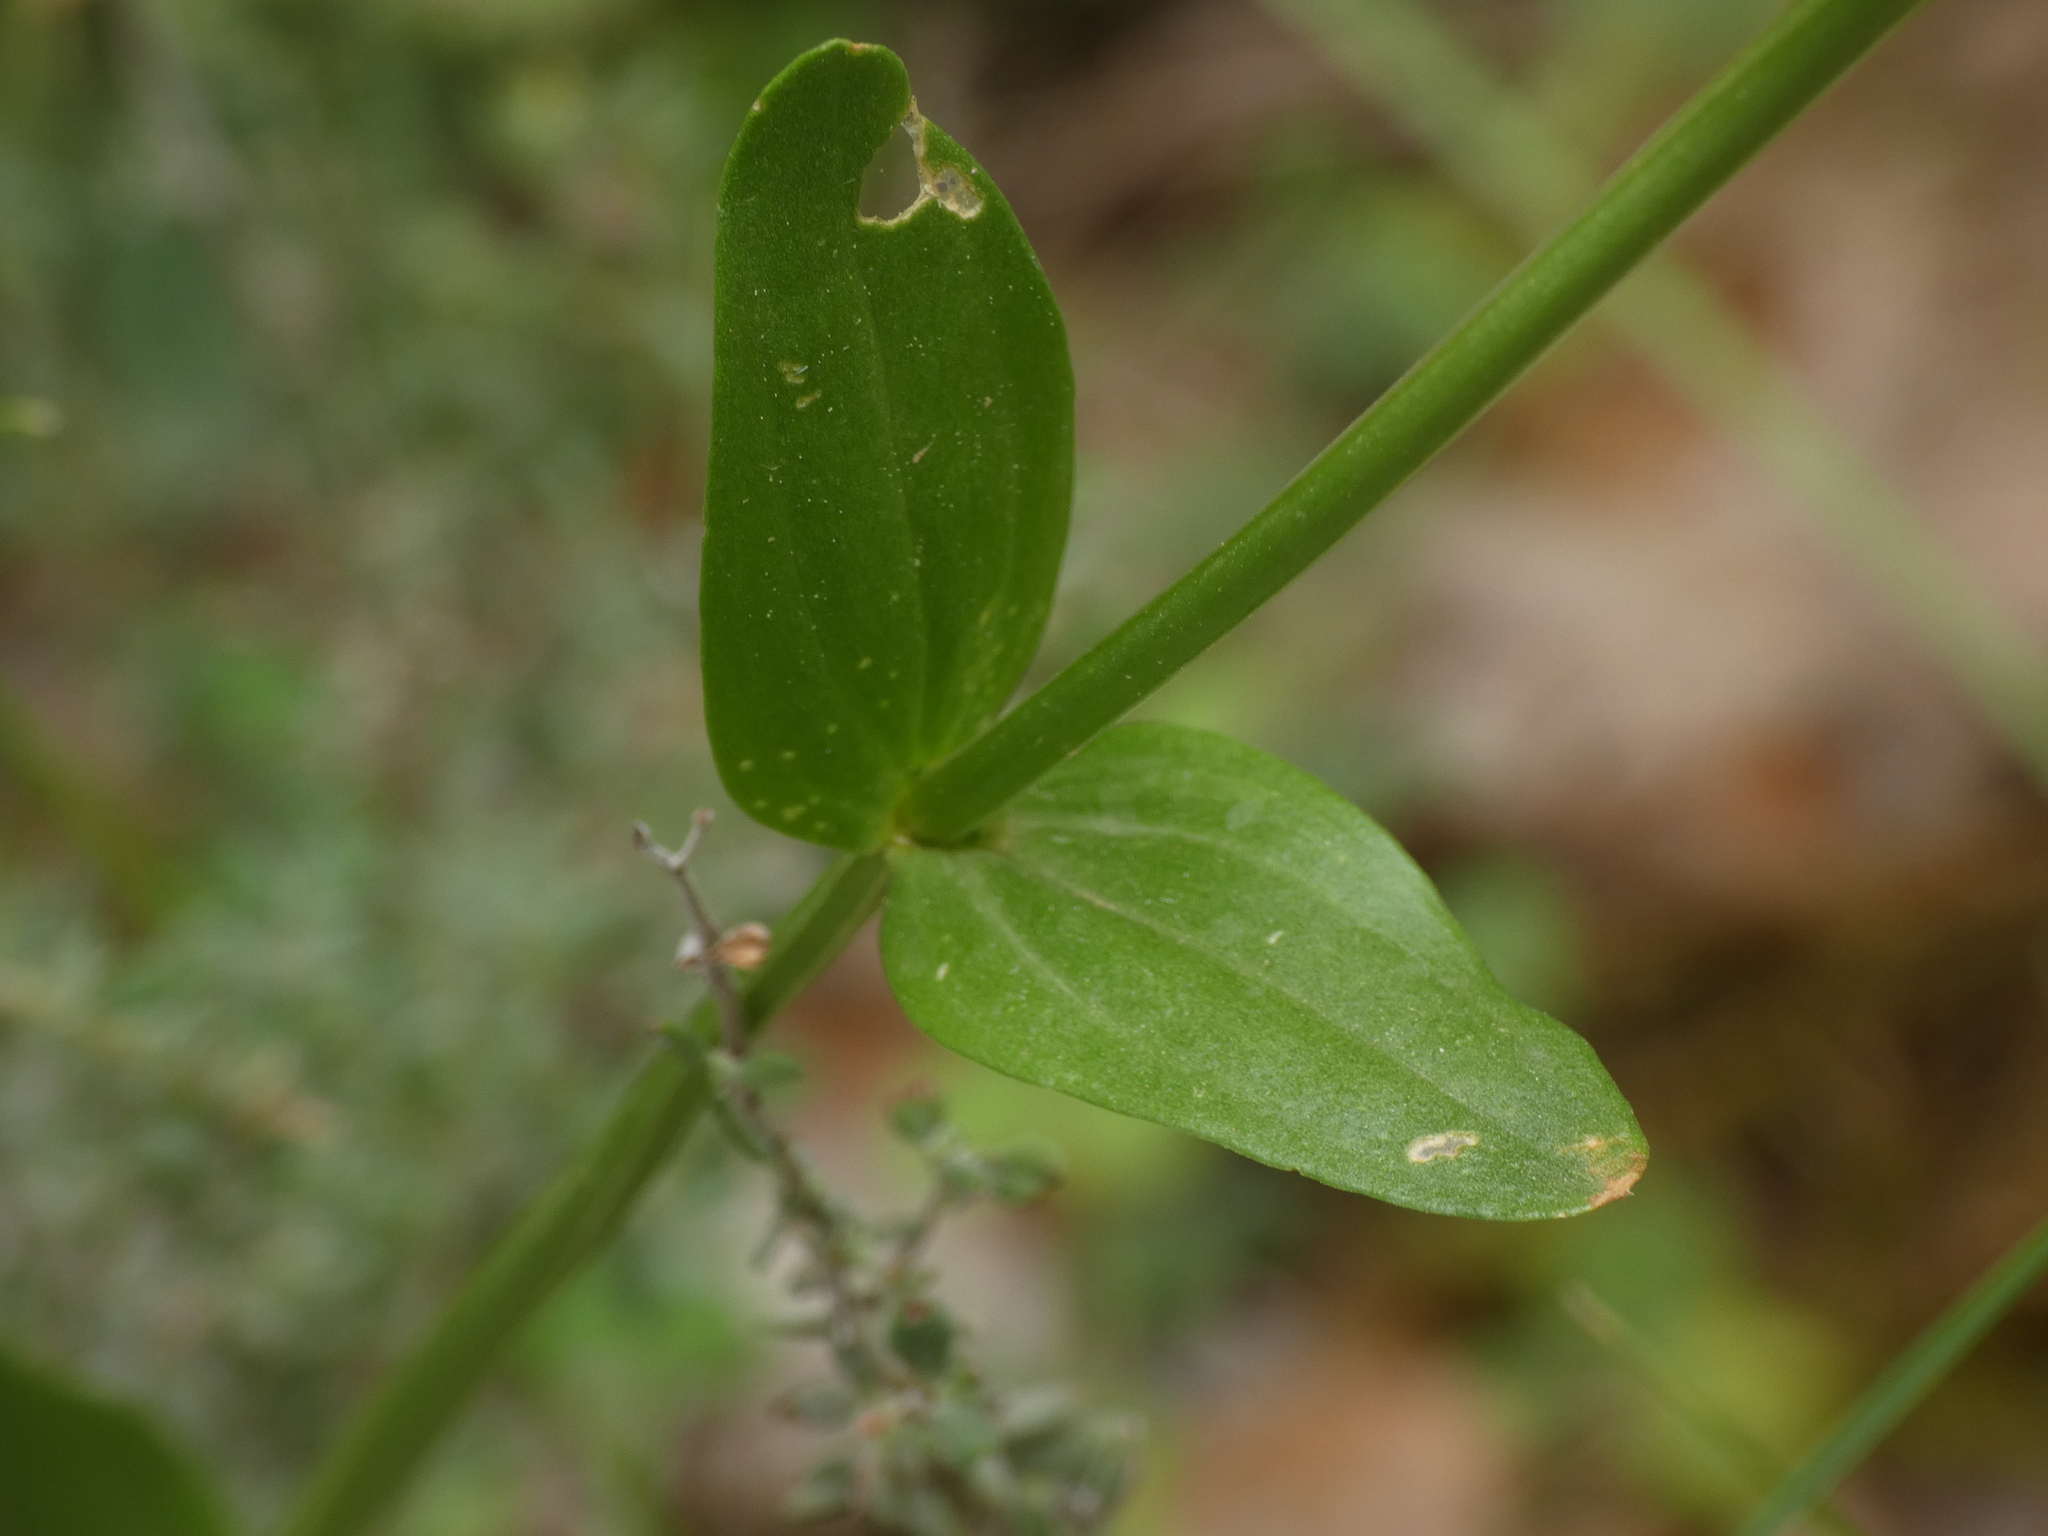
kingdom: Plantae
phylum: Tracheophyta
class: Magnoliopsida
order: Gentianales
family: Gentianaceae
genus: Centaurium
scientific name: Centaurium erythraea
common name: Common centaury
